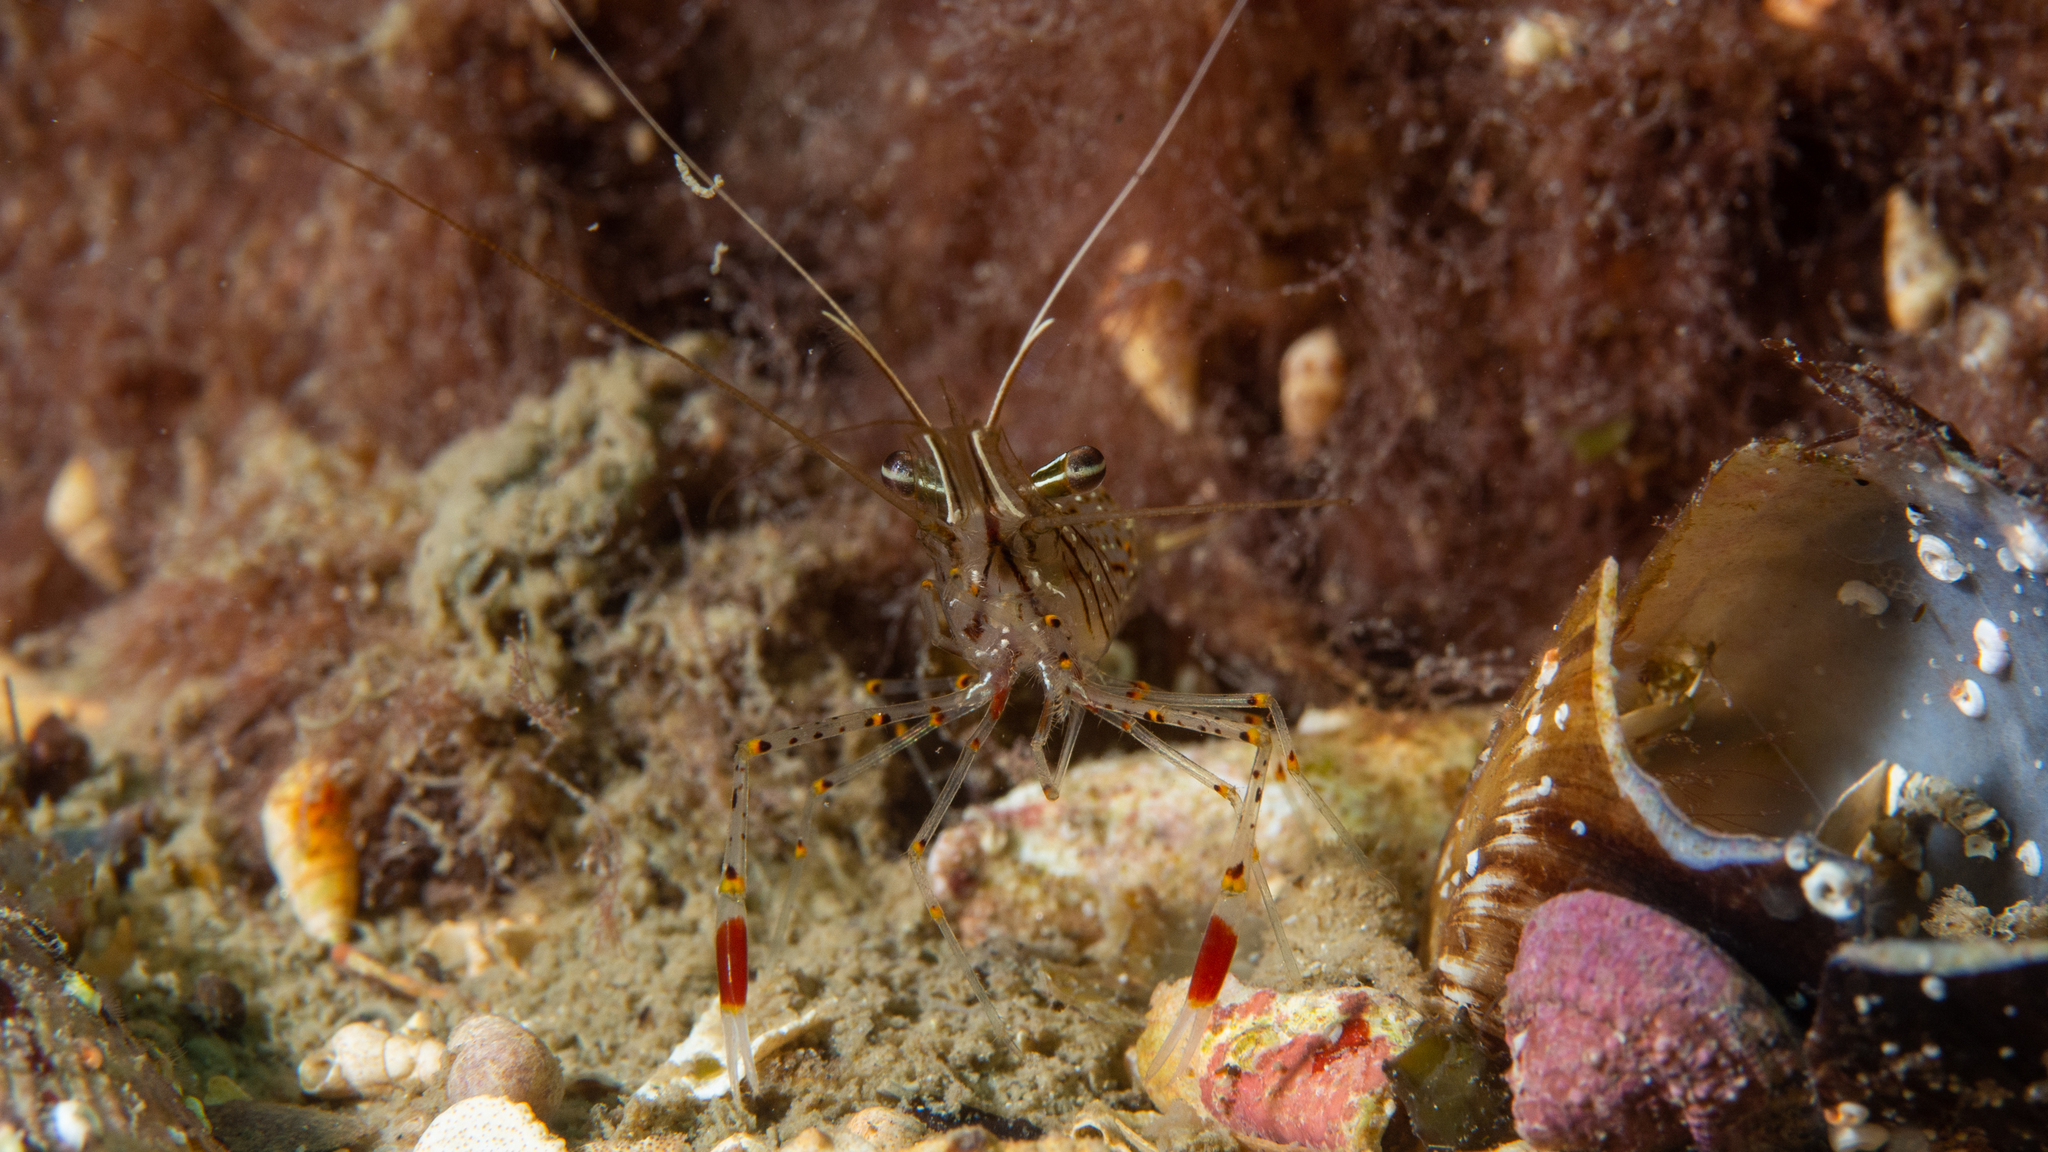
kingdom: Animalia
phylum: Arthropoda
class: Malacostraca
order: Decapoda
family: Palaemonidae
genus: Palaemon
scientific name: Palaemon serenus
